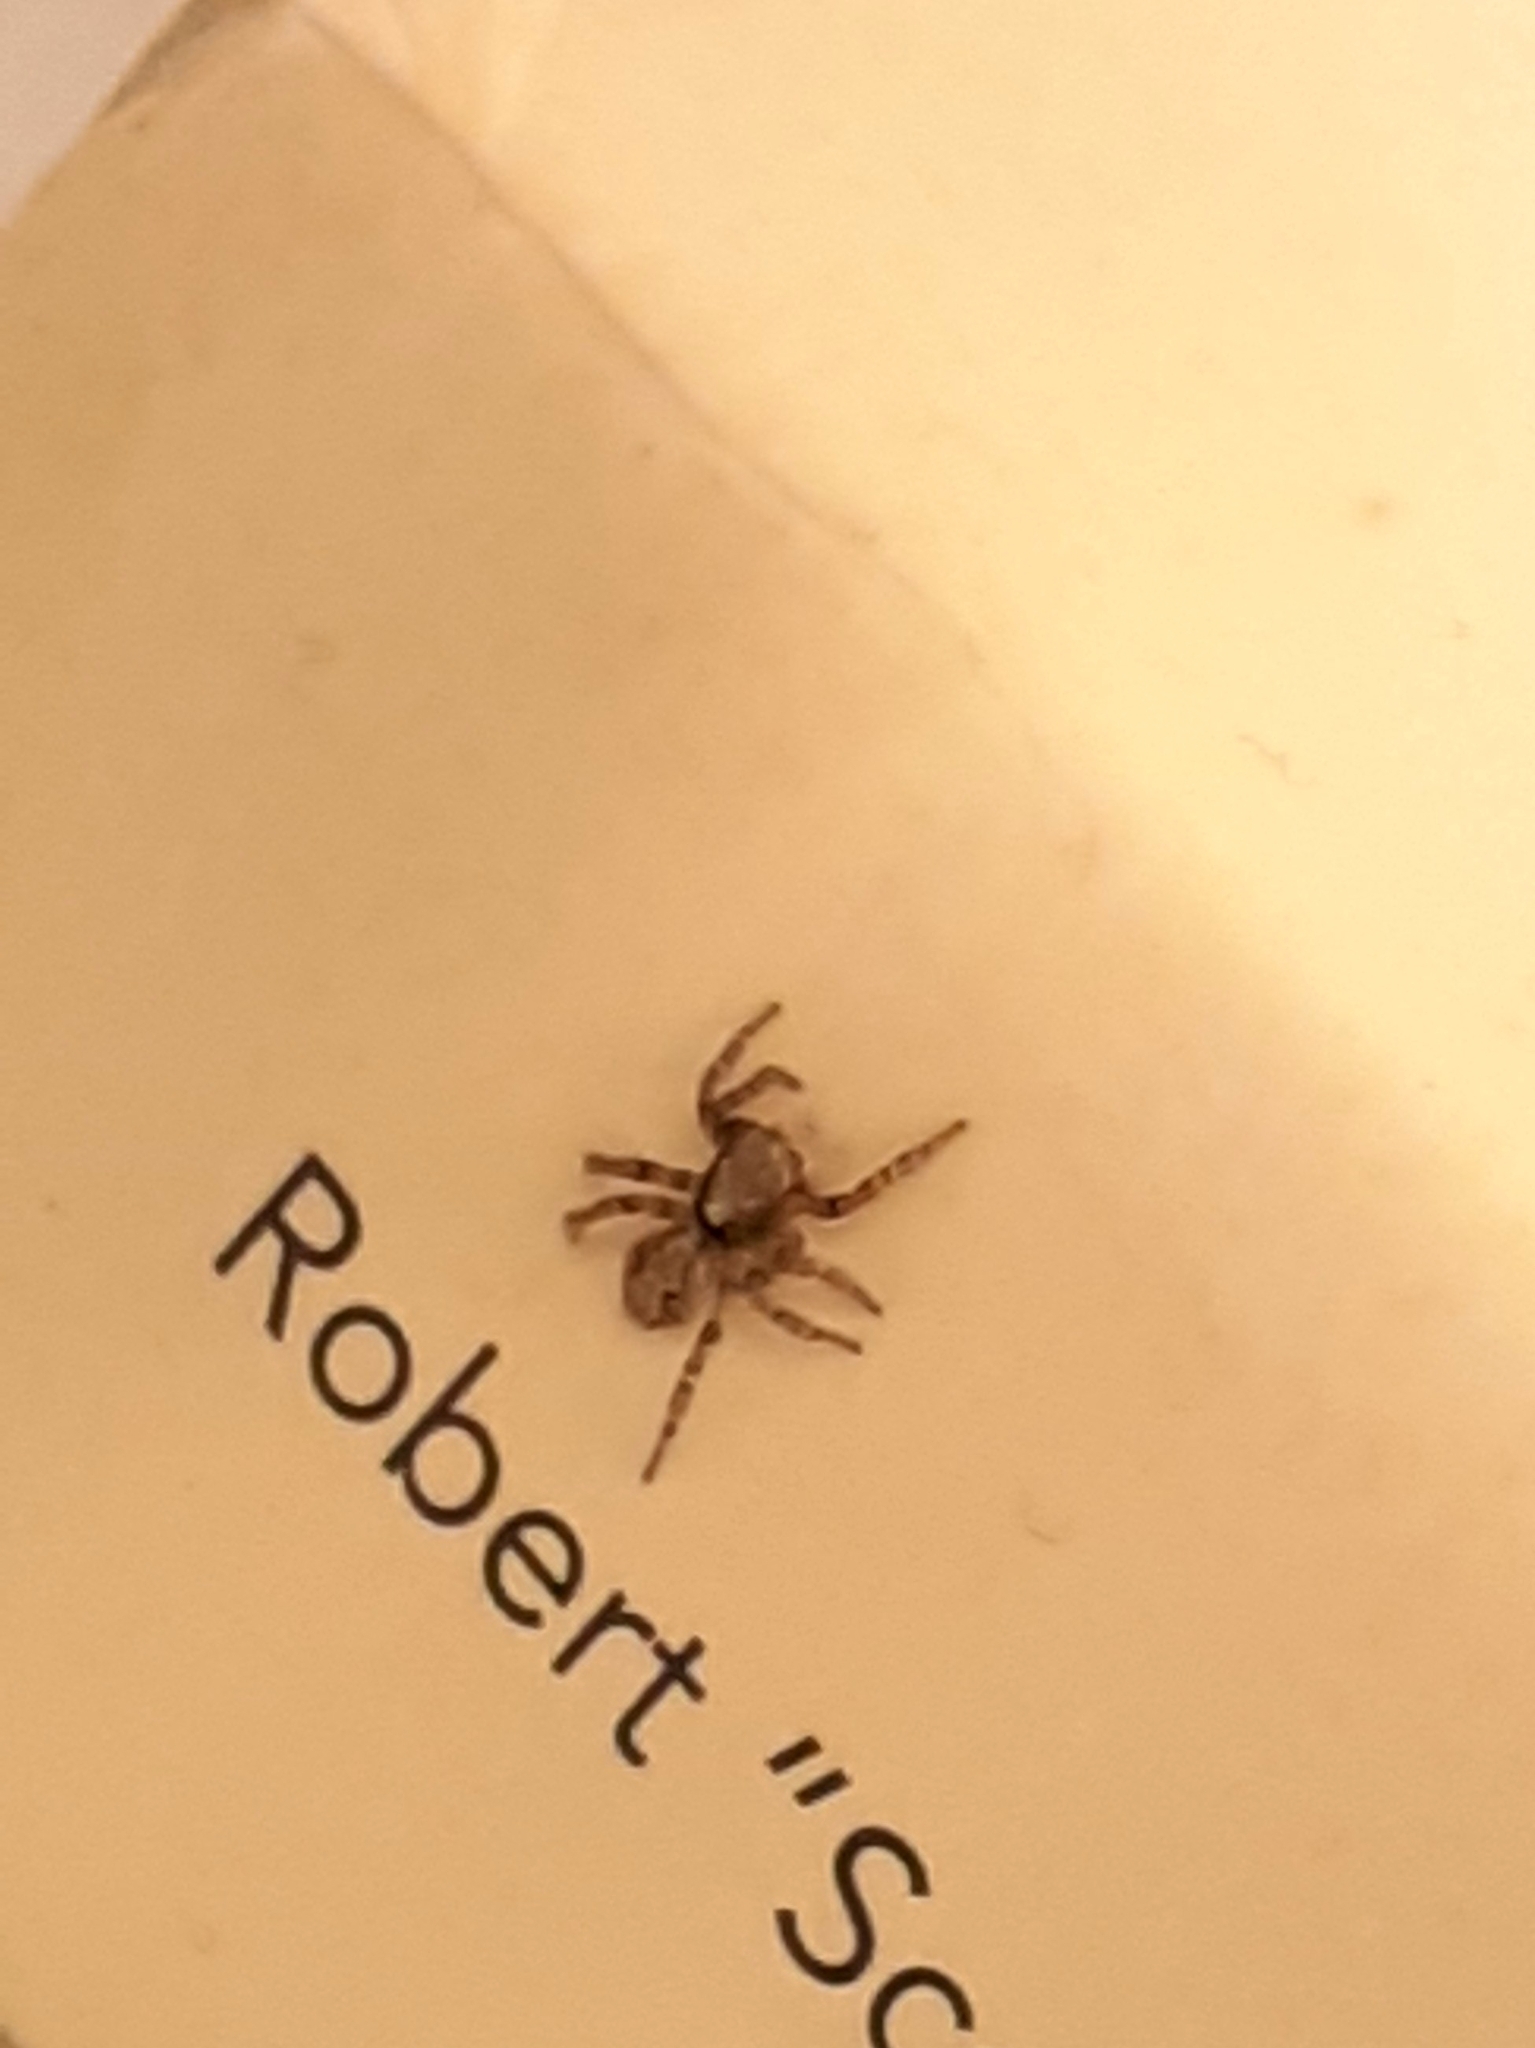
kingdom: Animalia
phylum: Arthropoda
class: Arachnida
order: Araneae
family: Salticidae
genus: Pseudeuophrys
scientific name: Pseudeuophrys lanigera
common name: Jumping spider
